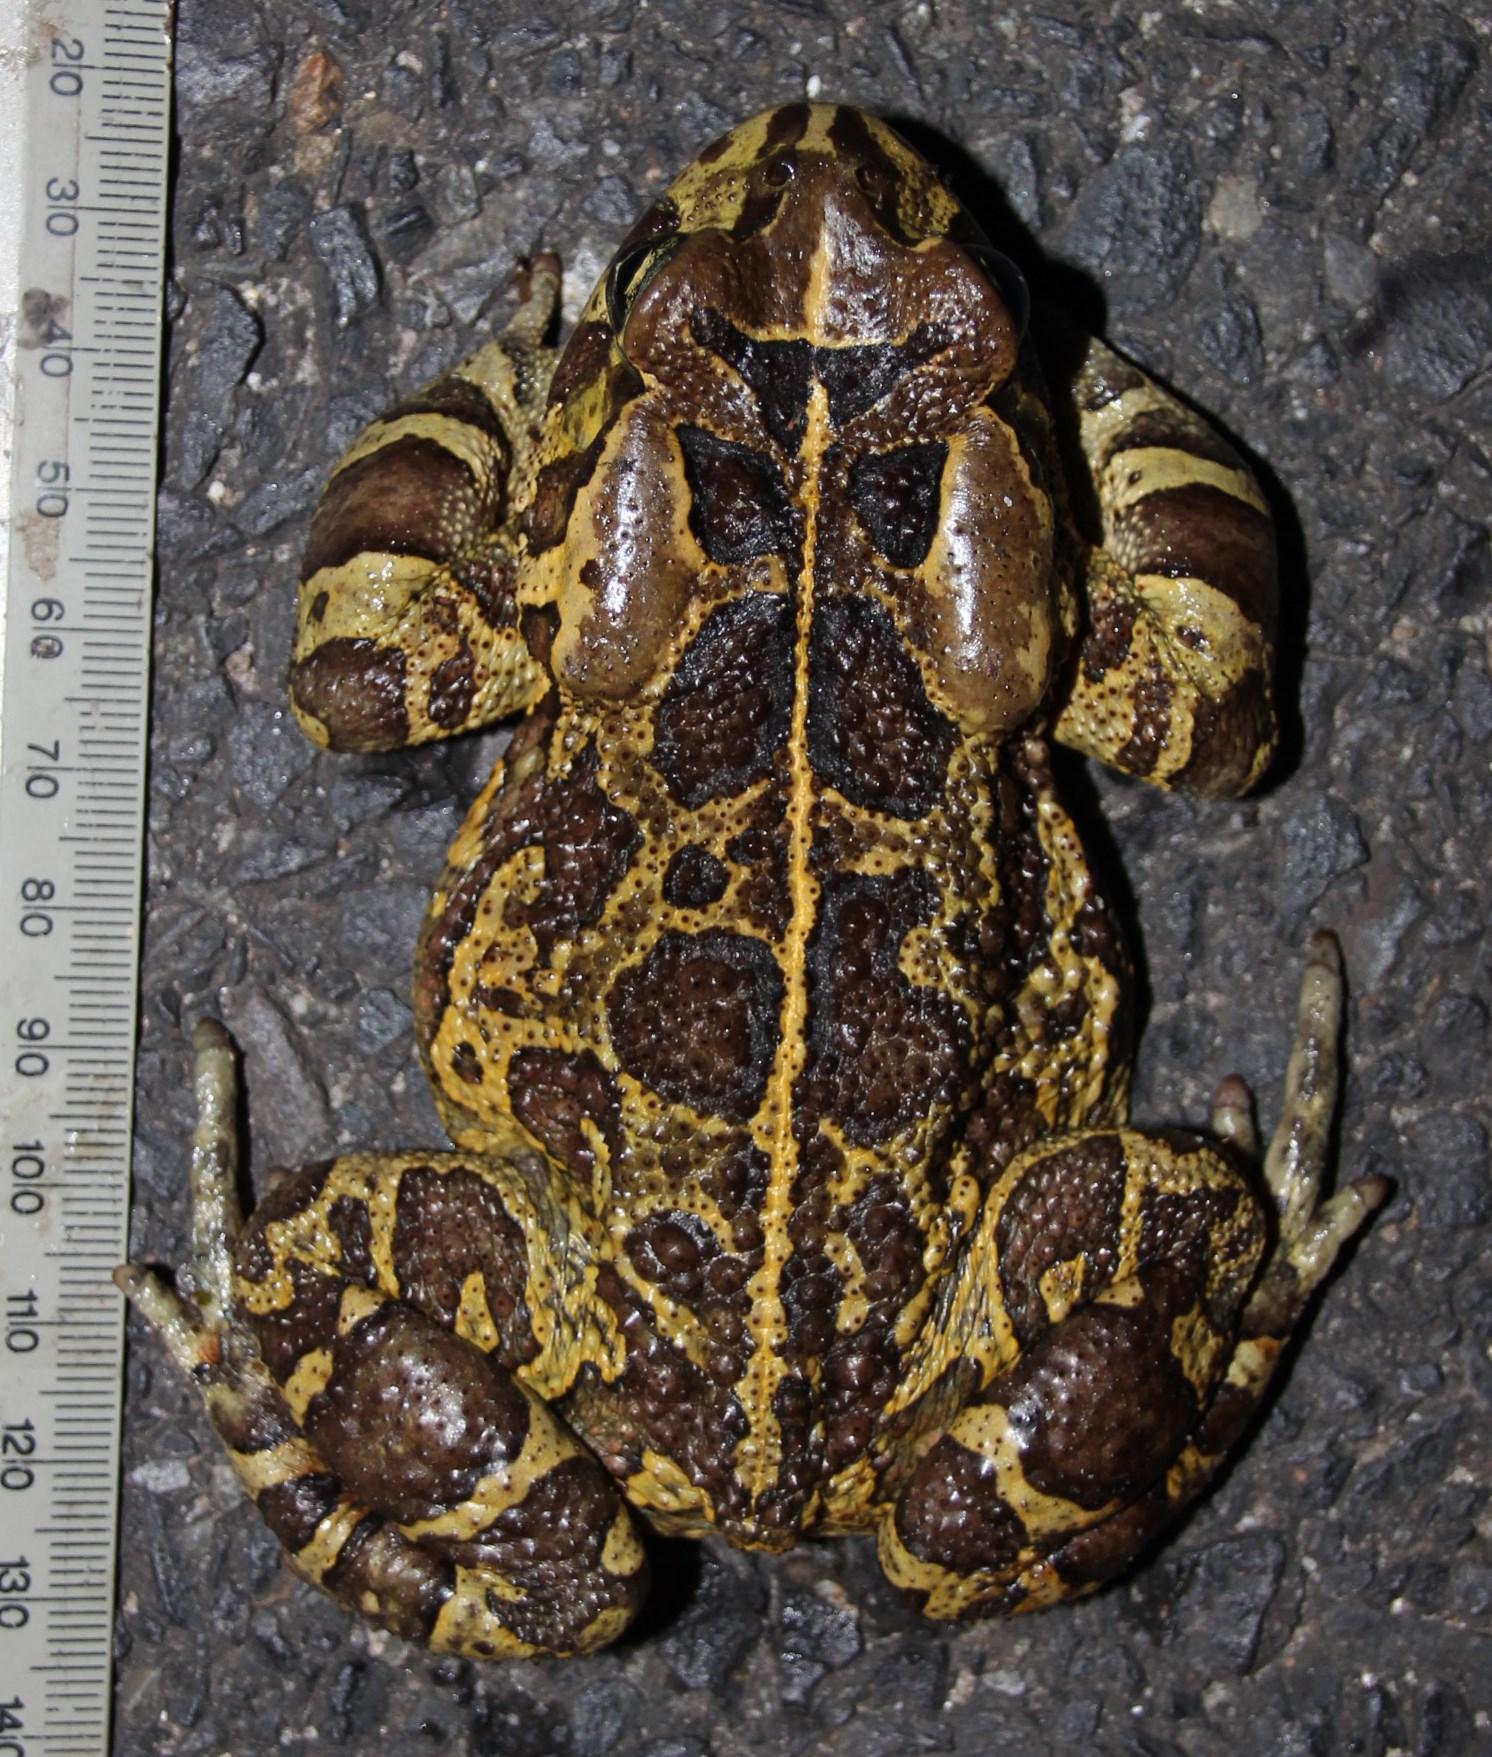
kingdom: Animalia
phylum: Chordata
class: Amphibia
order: Anura
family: Bufonidae
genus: Sclerophrys
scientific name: Sclerophrys pantherina
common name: Panther toad
